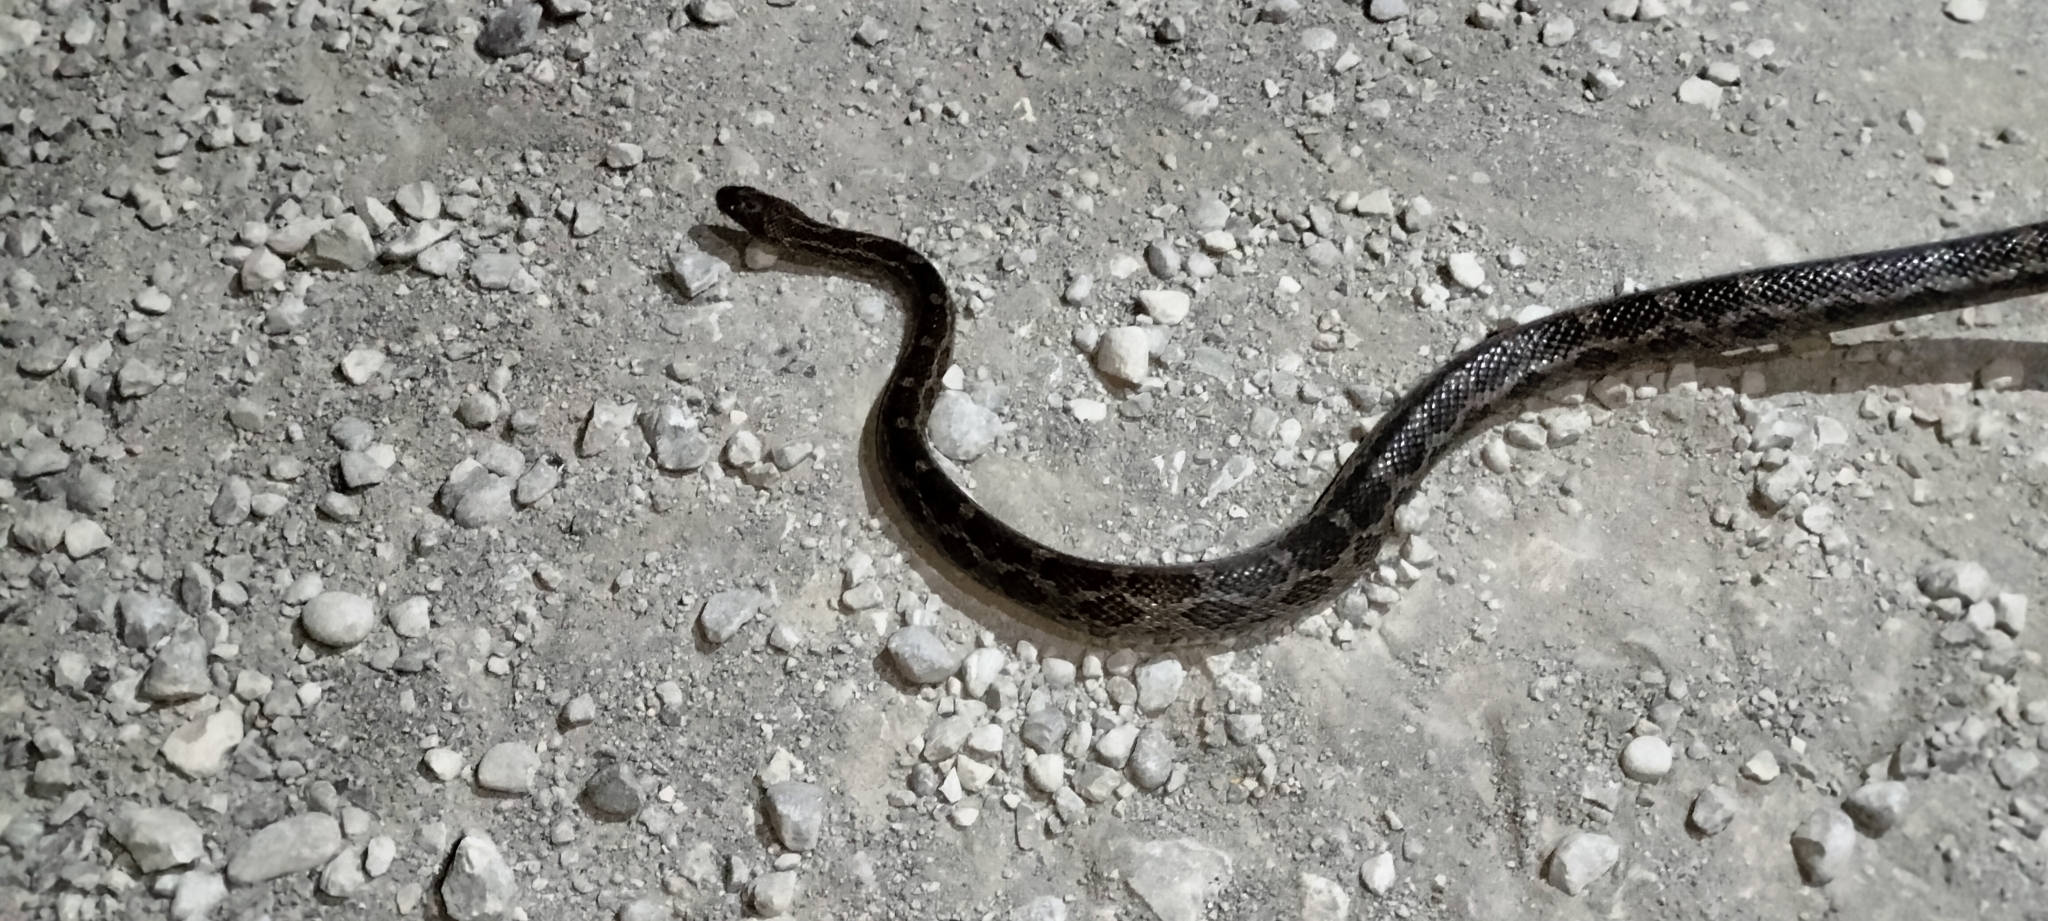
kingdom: Animalia
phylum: Chordata
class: Squamata
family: Colubridae
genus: Pantherophis
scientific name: Pantherophis emoryi
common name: Great plains rat snake
